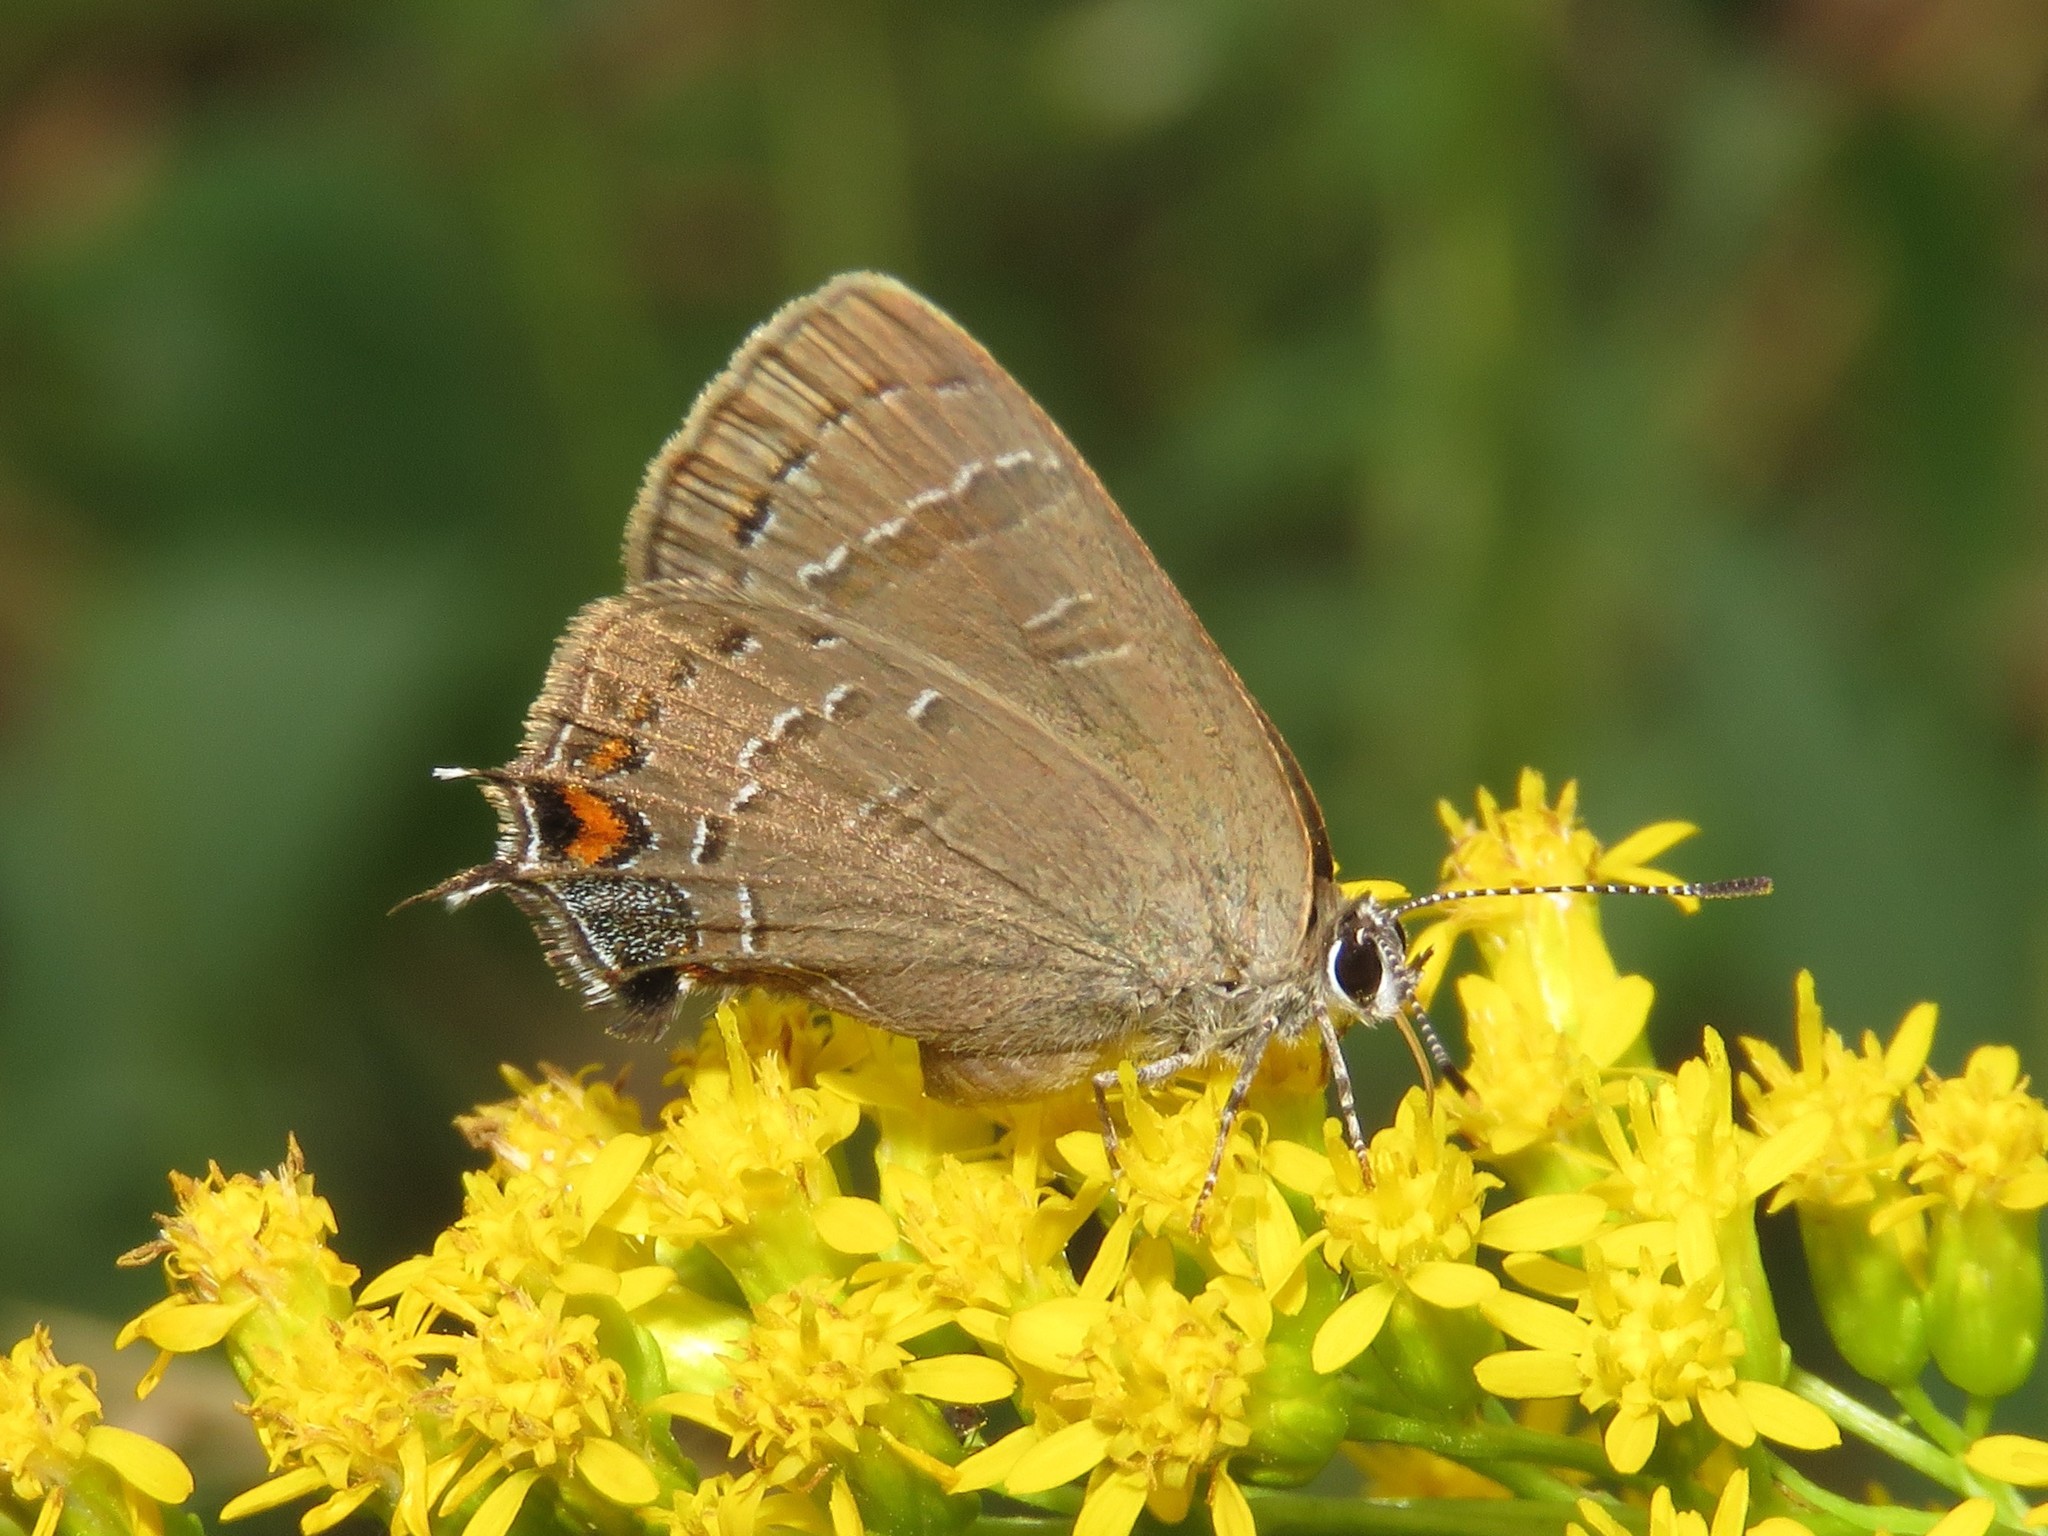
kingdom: Animalia
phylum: Arthropoda
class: Insecta
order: Lepidoptera
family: Lycaenidae
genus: Satyrium
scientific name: Satyrium calanus
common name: Banded hairstreak
